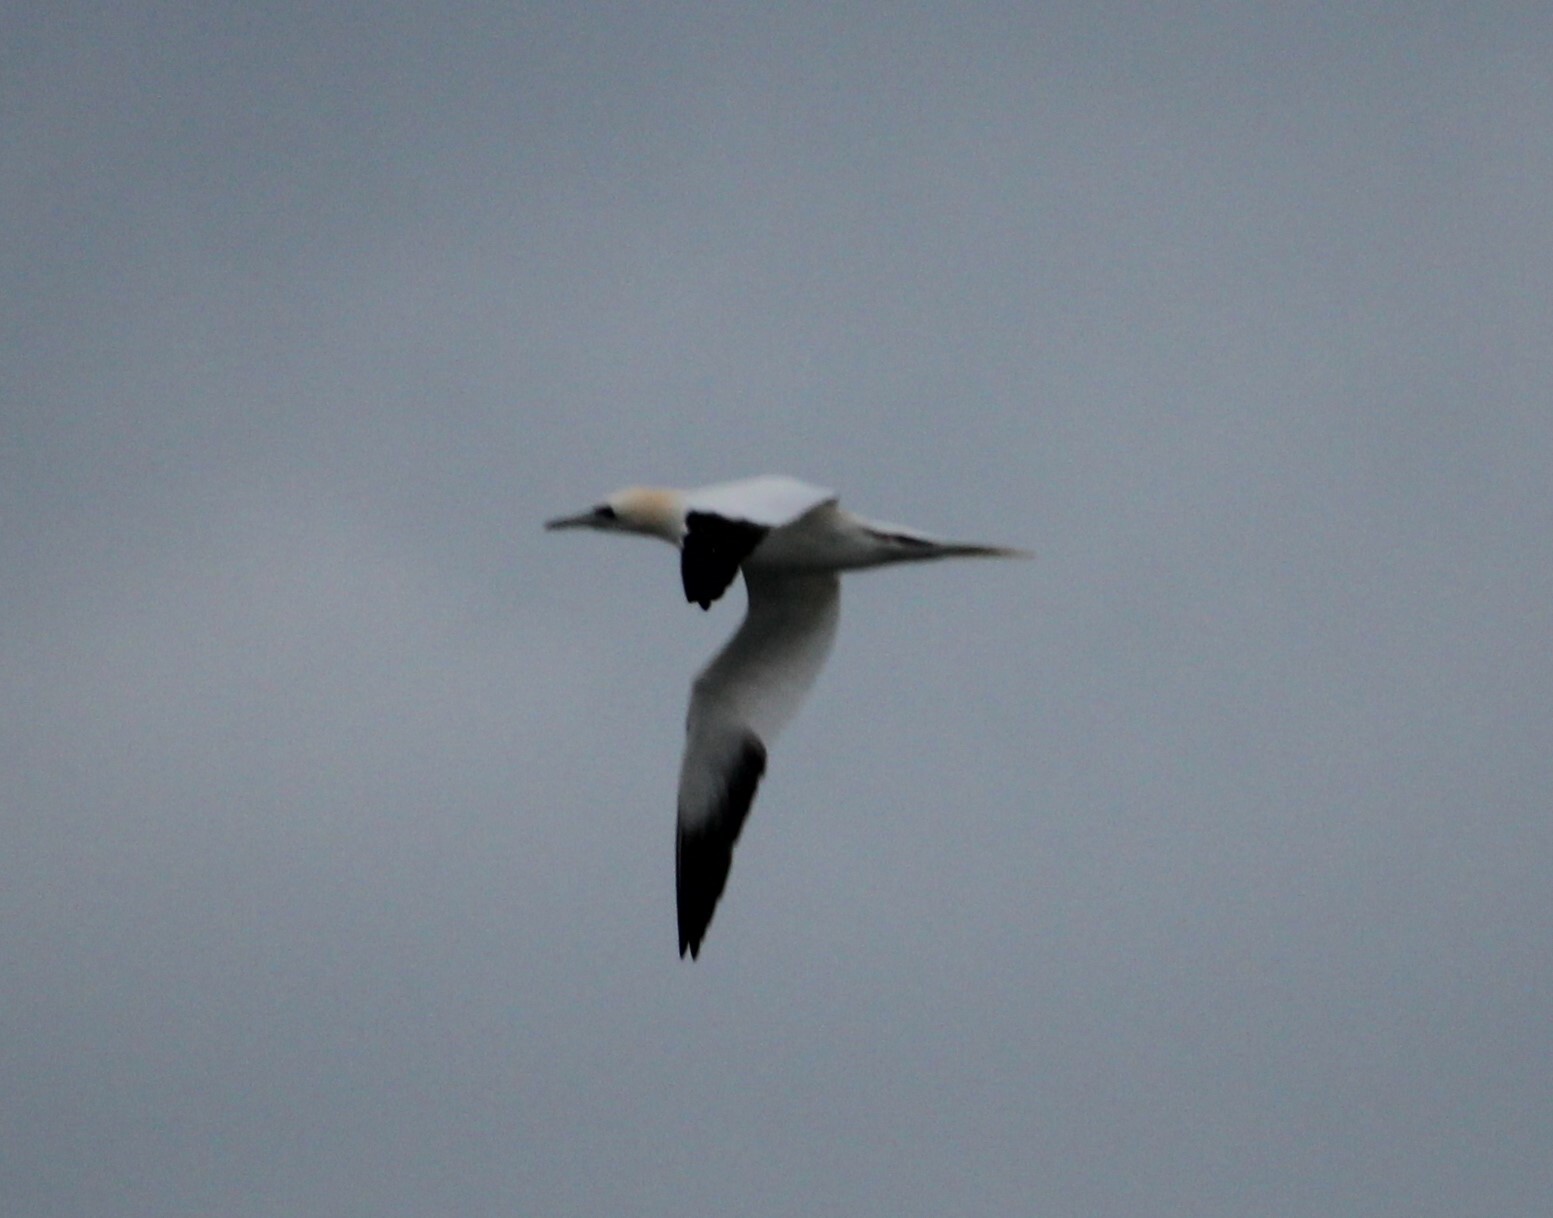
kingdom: Animalia
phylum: Chordata
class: Aves
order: Suliformes
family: Sulidae
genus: Morus
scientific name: Morus bassanus
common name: Northern gannet
